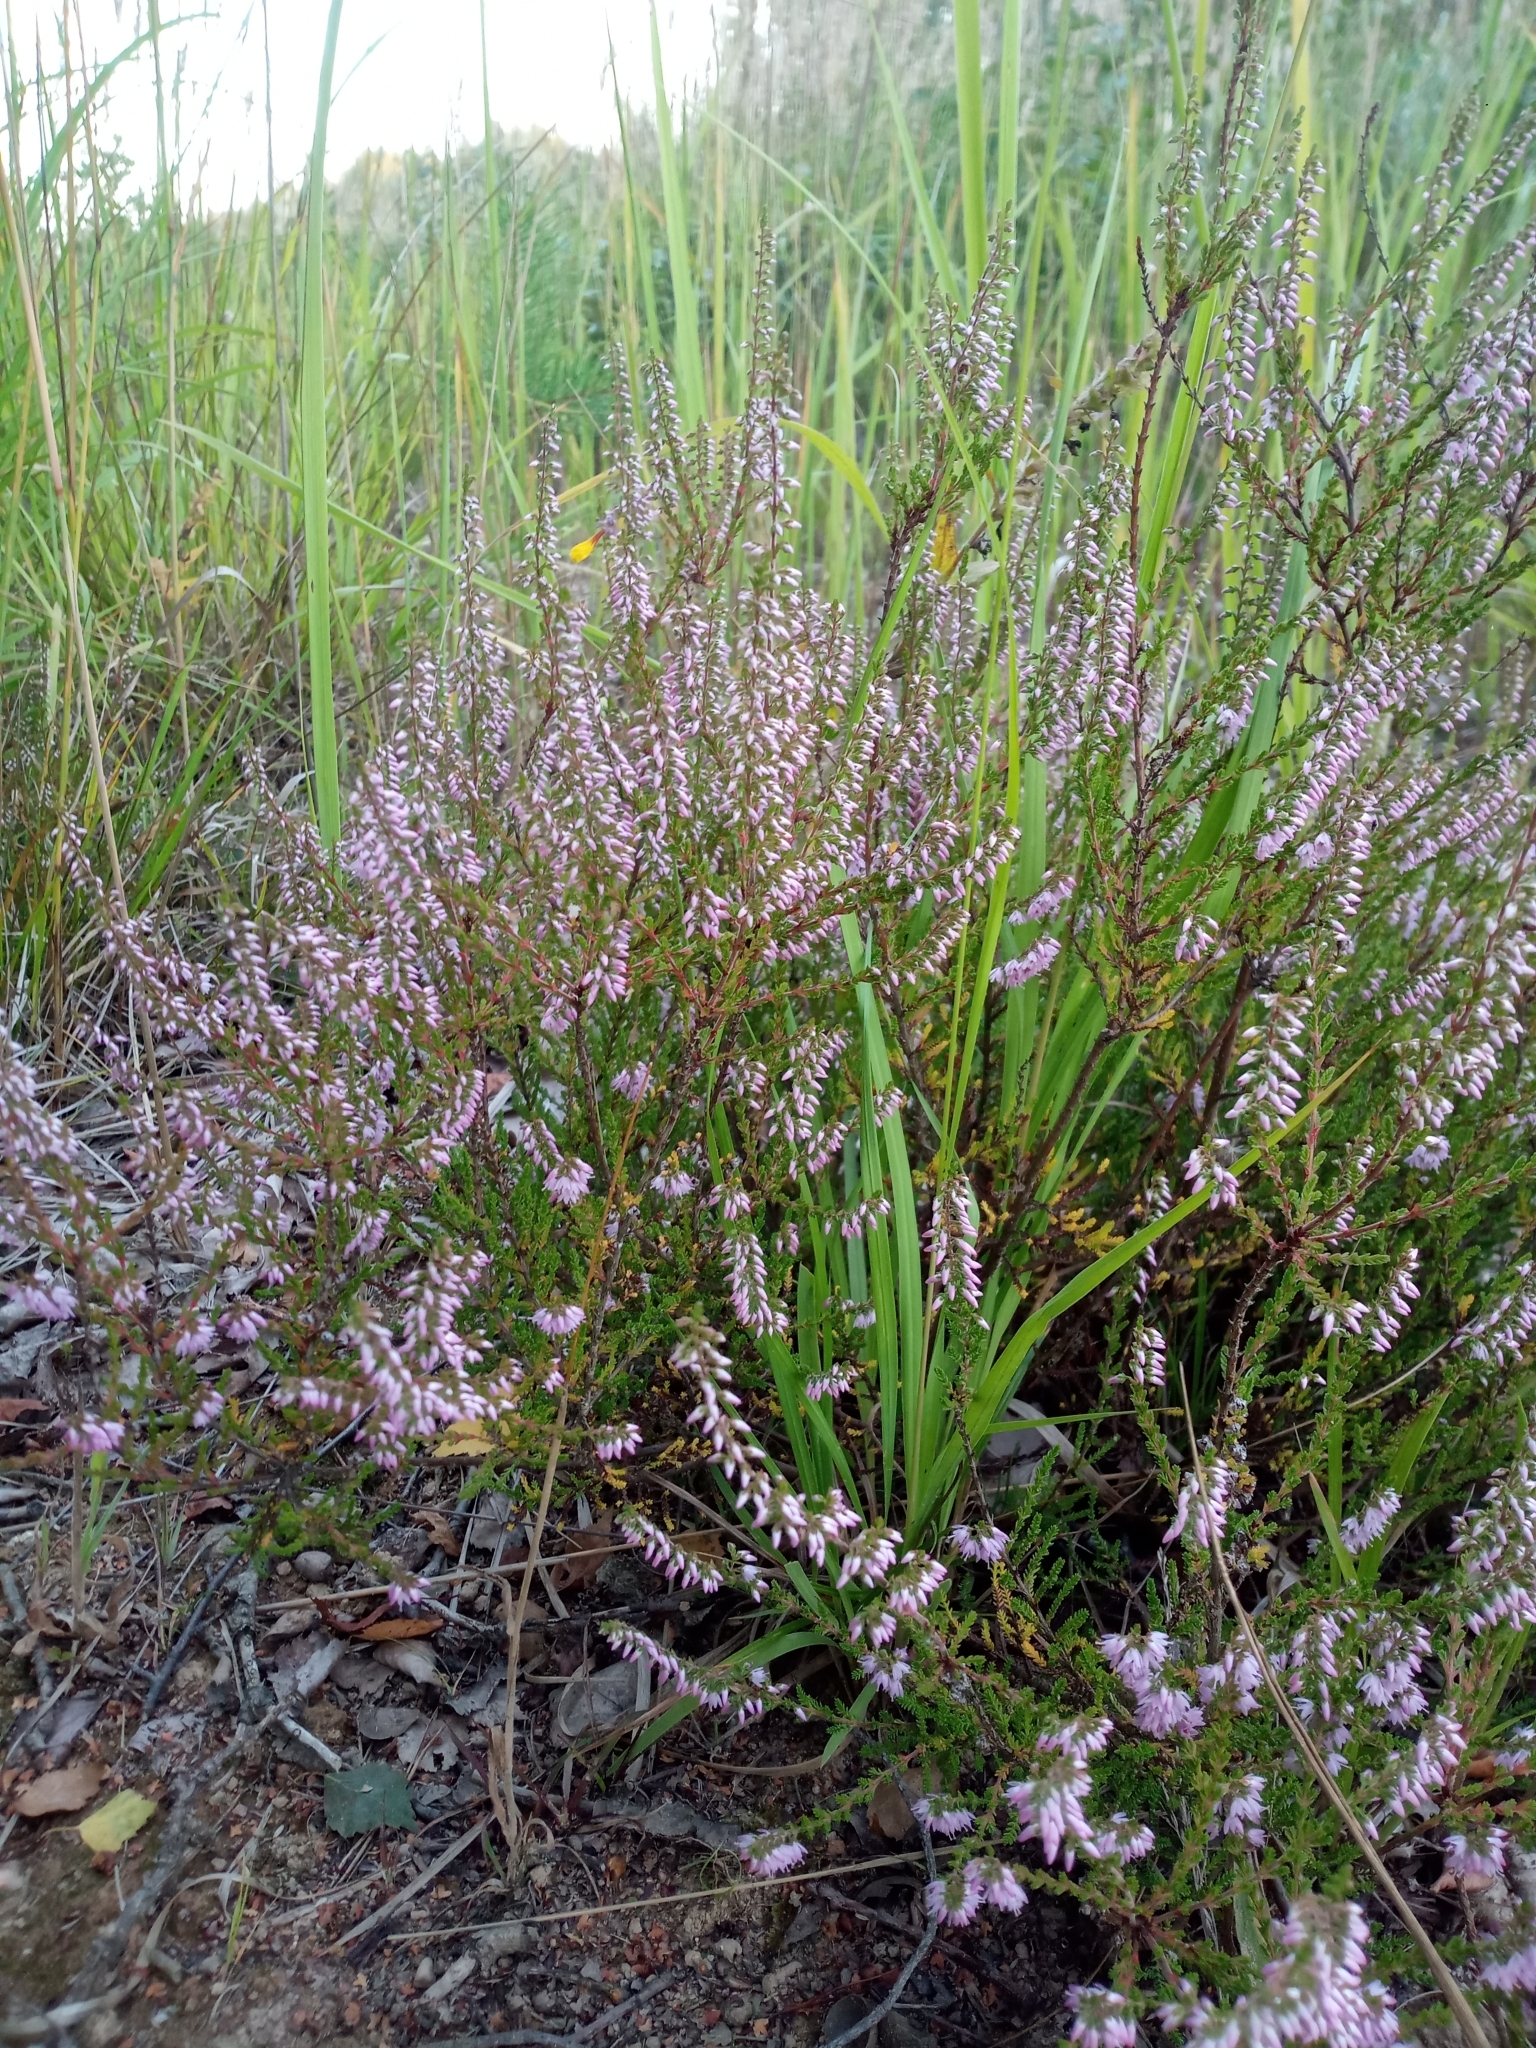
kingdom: Plantae
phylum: Tracheophyta
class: Magnoliopsida
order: Ericales
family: Ericaceae
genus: Calluna
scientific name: Calluna vulgaris
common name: Heather
